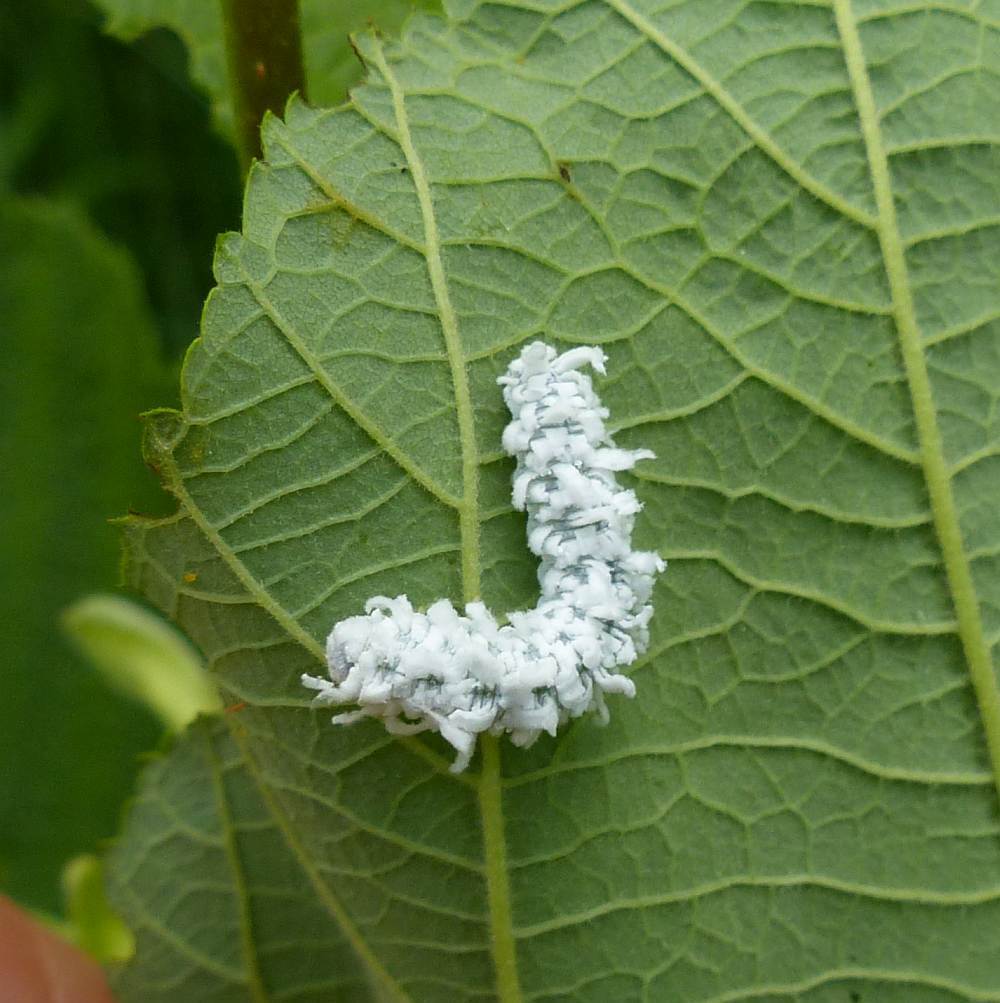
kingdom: Animalia
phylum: Arthropoda
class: Insecta
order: Hymenoptera
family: Tenthredinidae
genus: Eriocampa
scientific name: Eriocampa ovata
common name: Alder wooly sawfly
